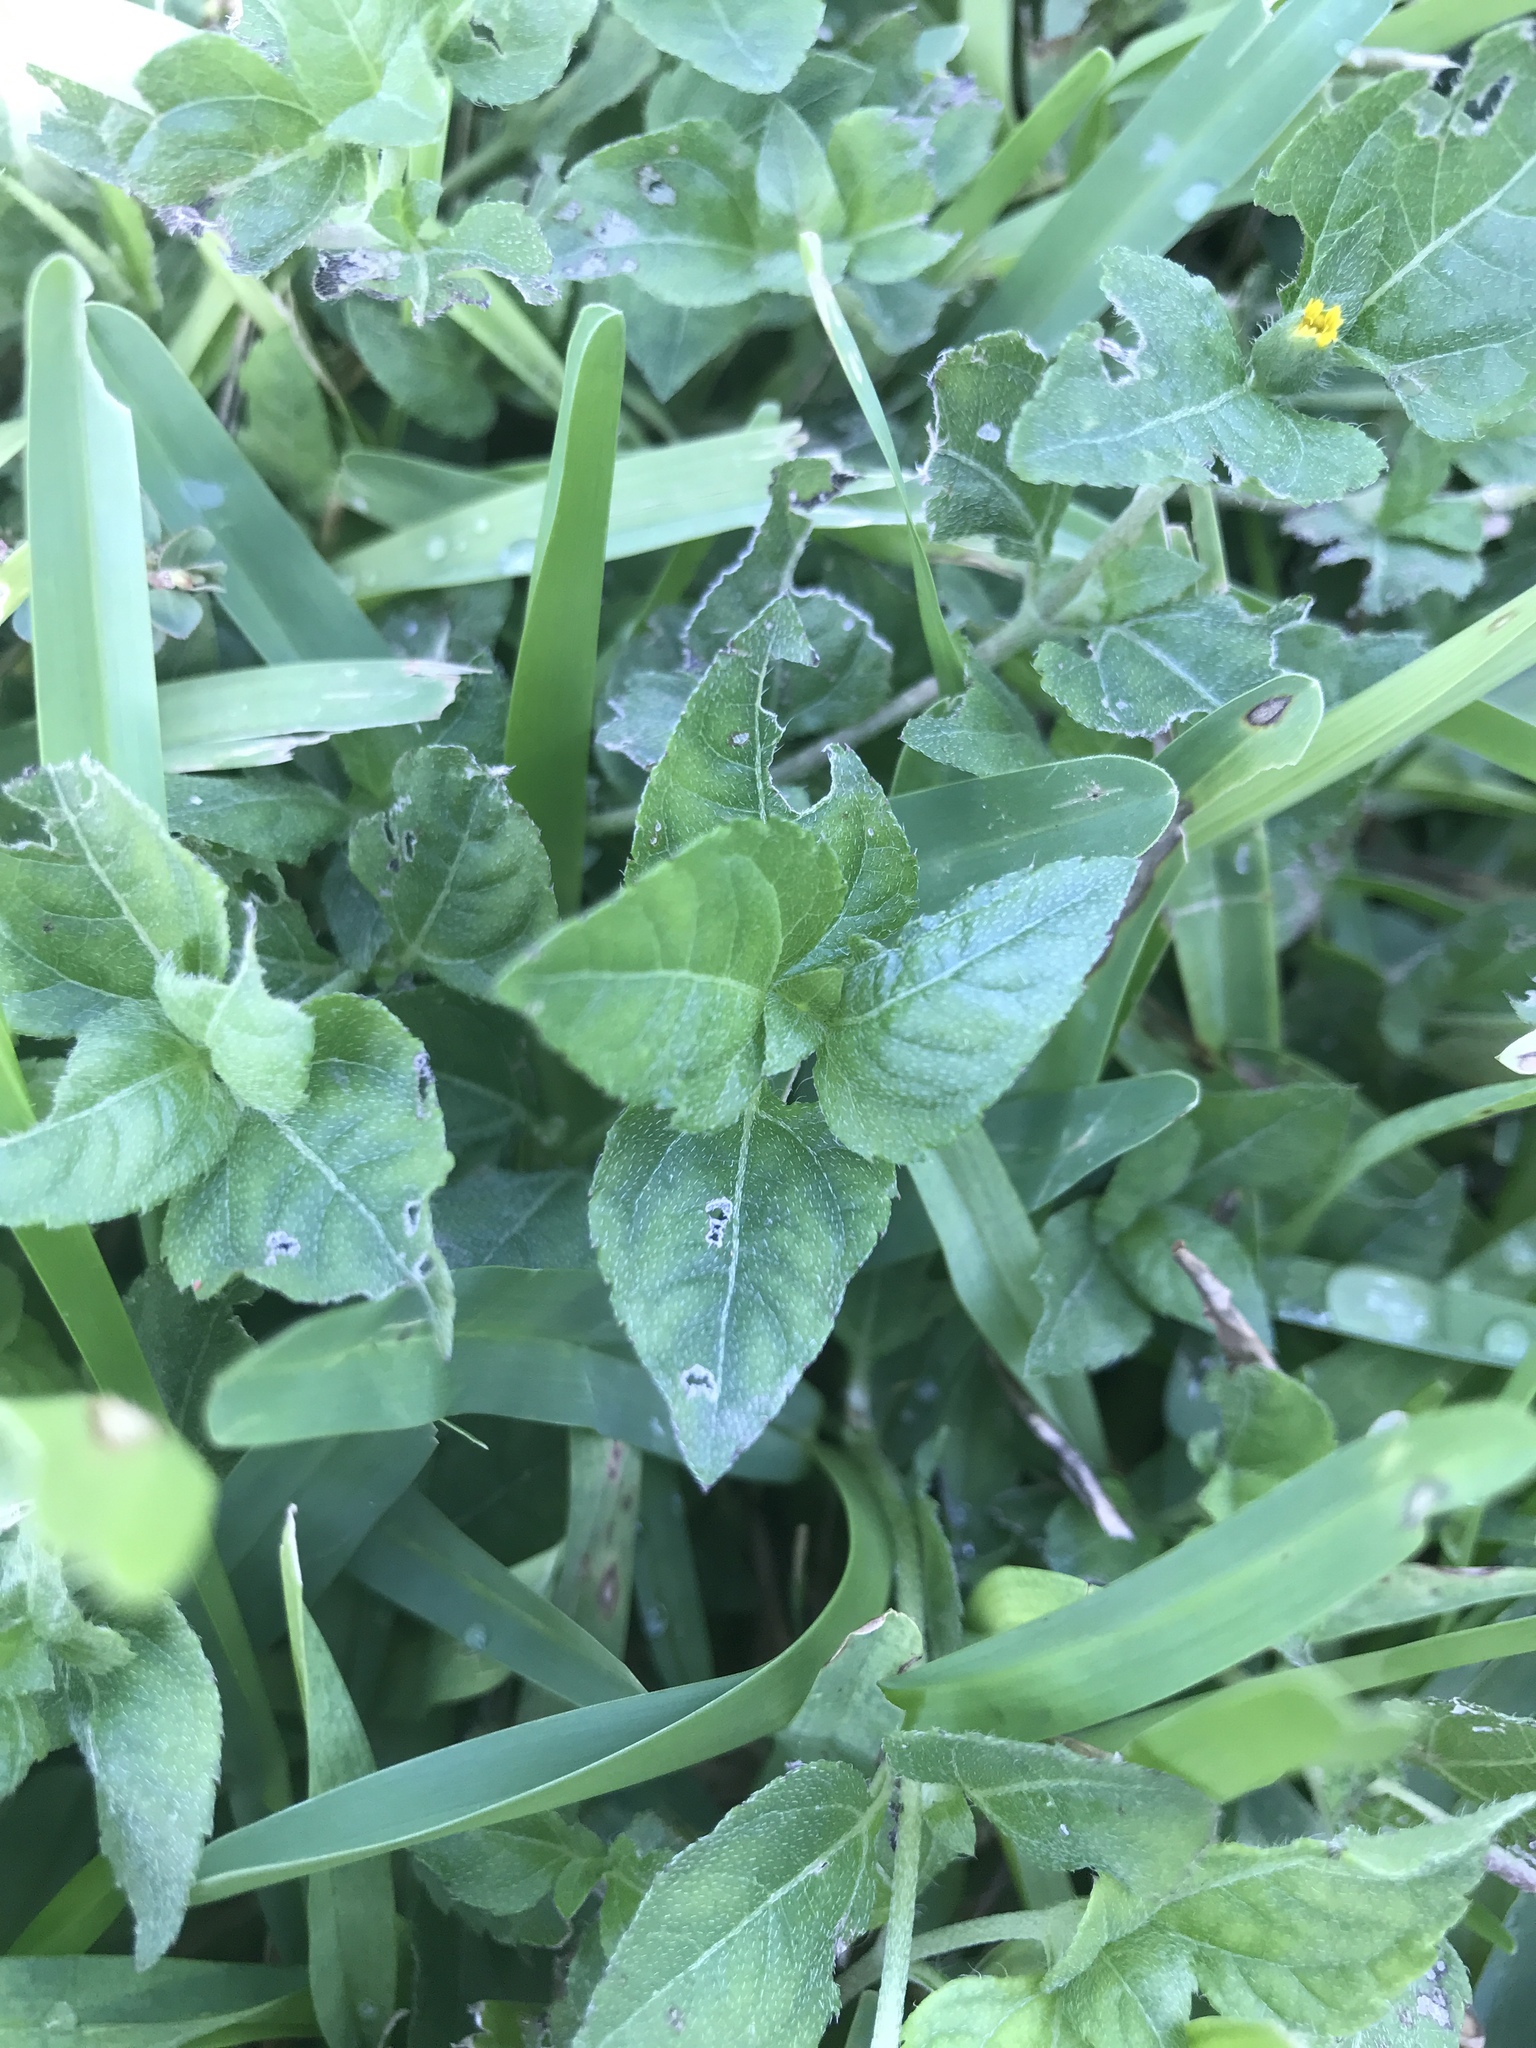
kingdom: Plantae
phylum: Tracheophyta
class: Magnoliopsida
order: Asterales
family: Asteraceae
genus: Calyptocarpus
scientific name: Calyptocarpus vialis
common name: Straggler daisy
